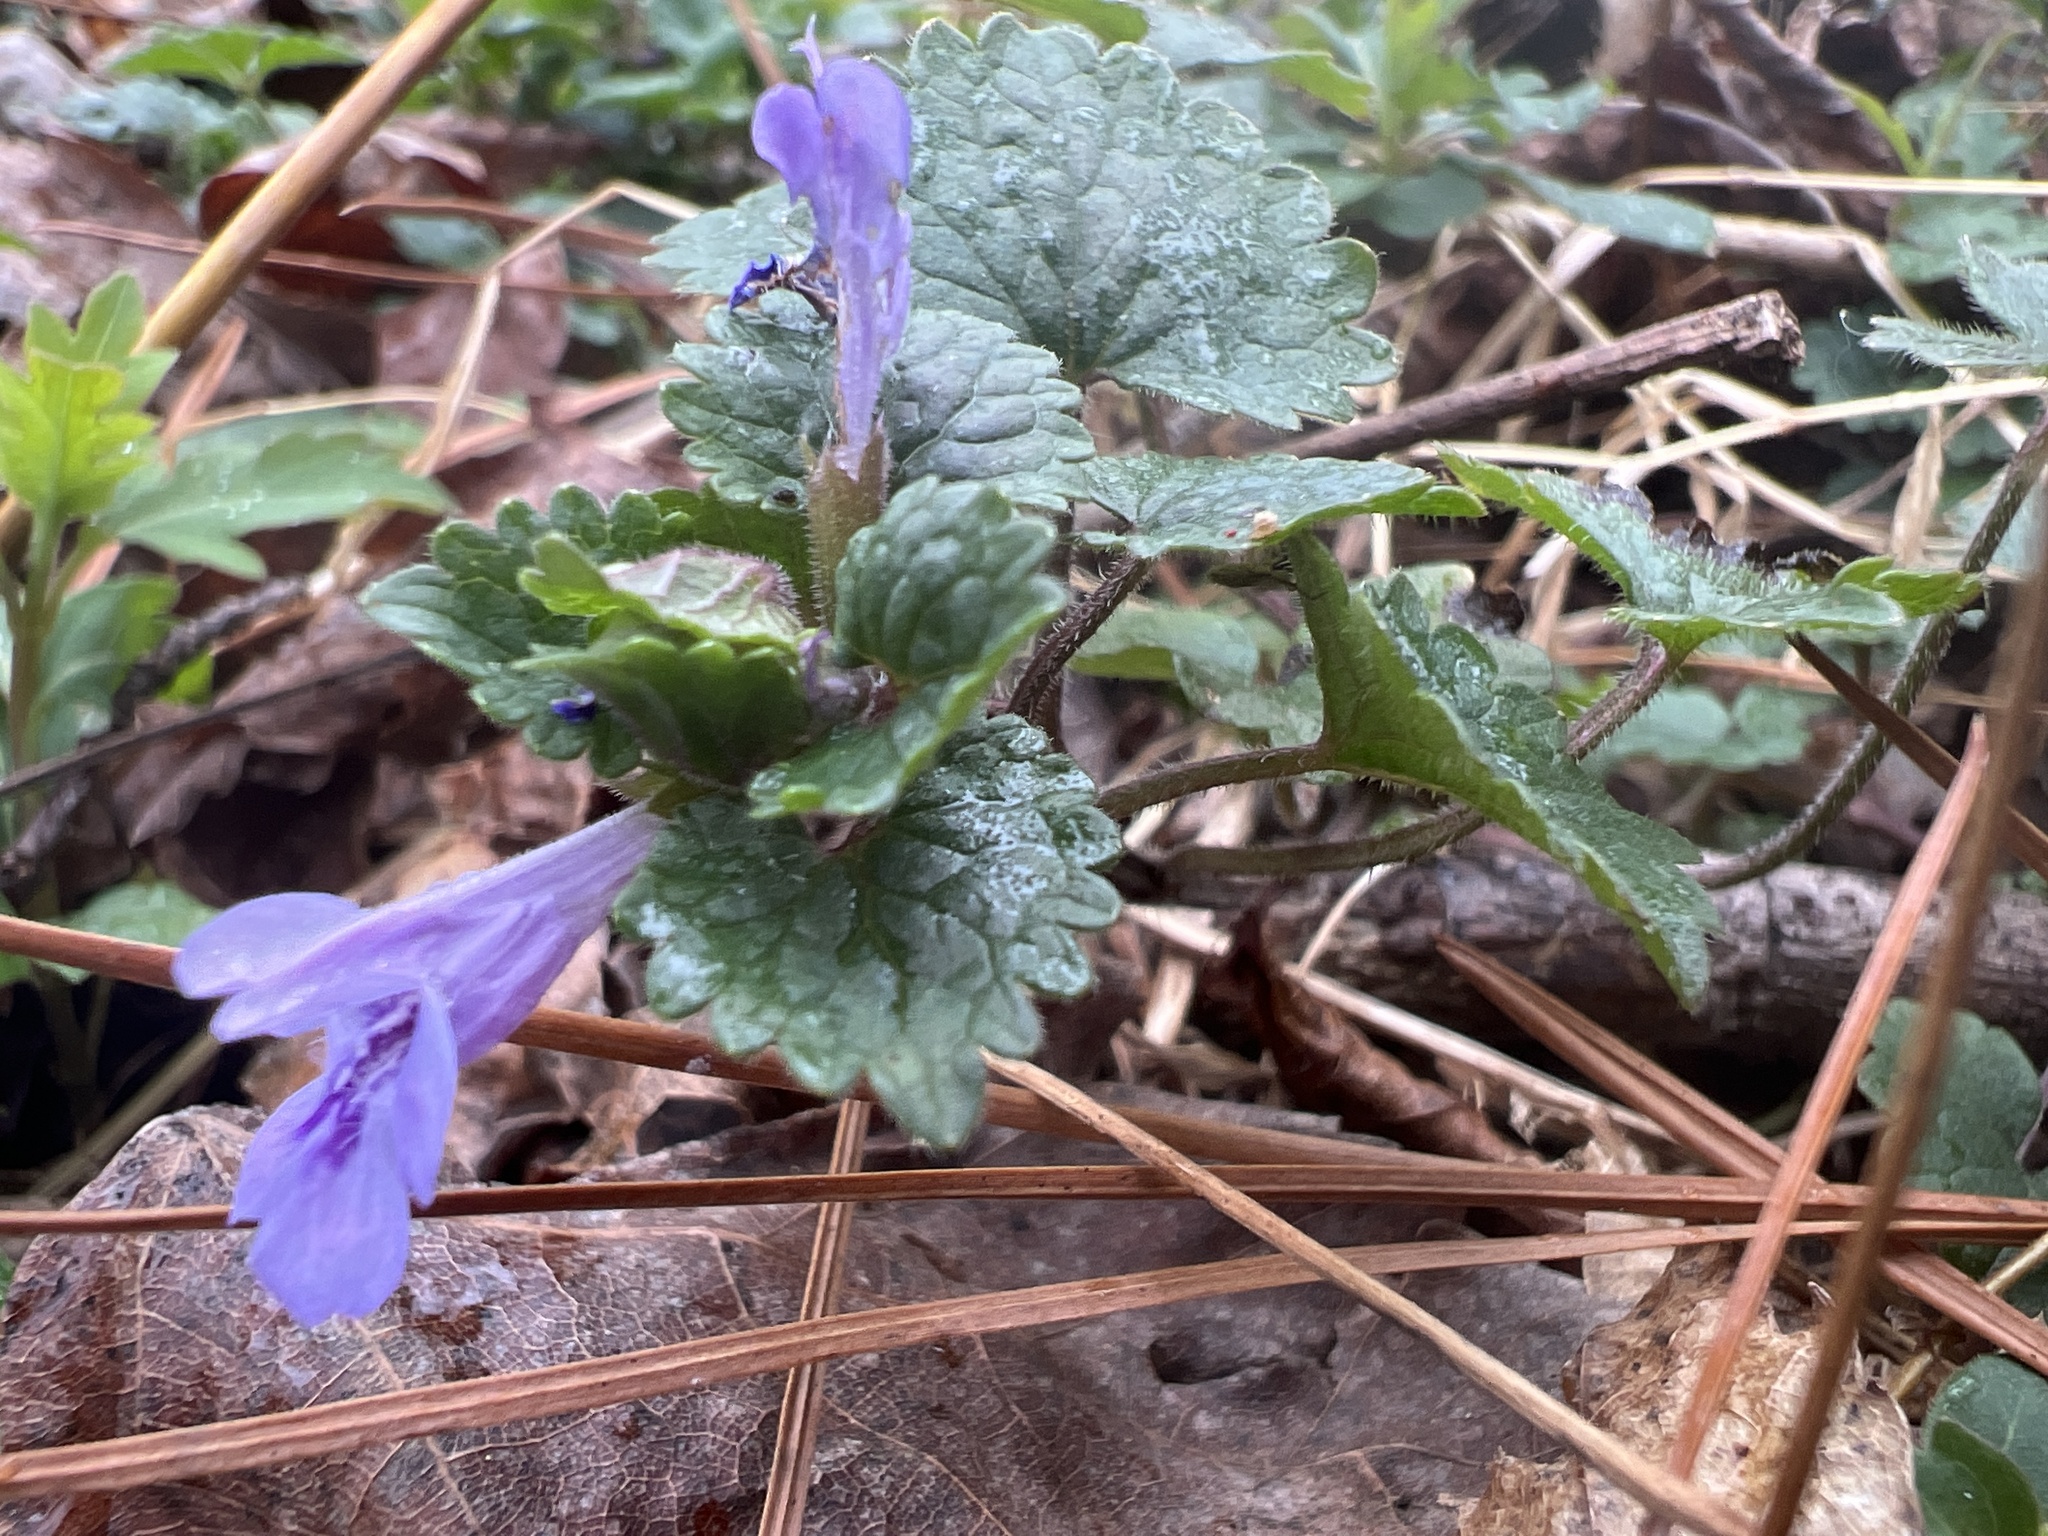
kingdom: Plantae
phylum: Tracheophyta
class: Magnoliopsida
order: Lamiales
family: Lamiaceae
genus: Glechoma
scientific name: Glechoma hederacea
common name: Ground ivy
